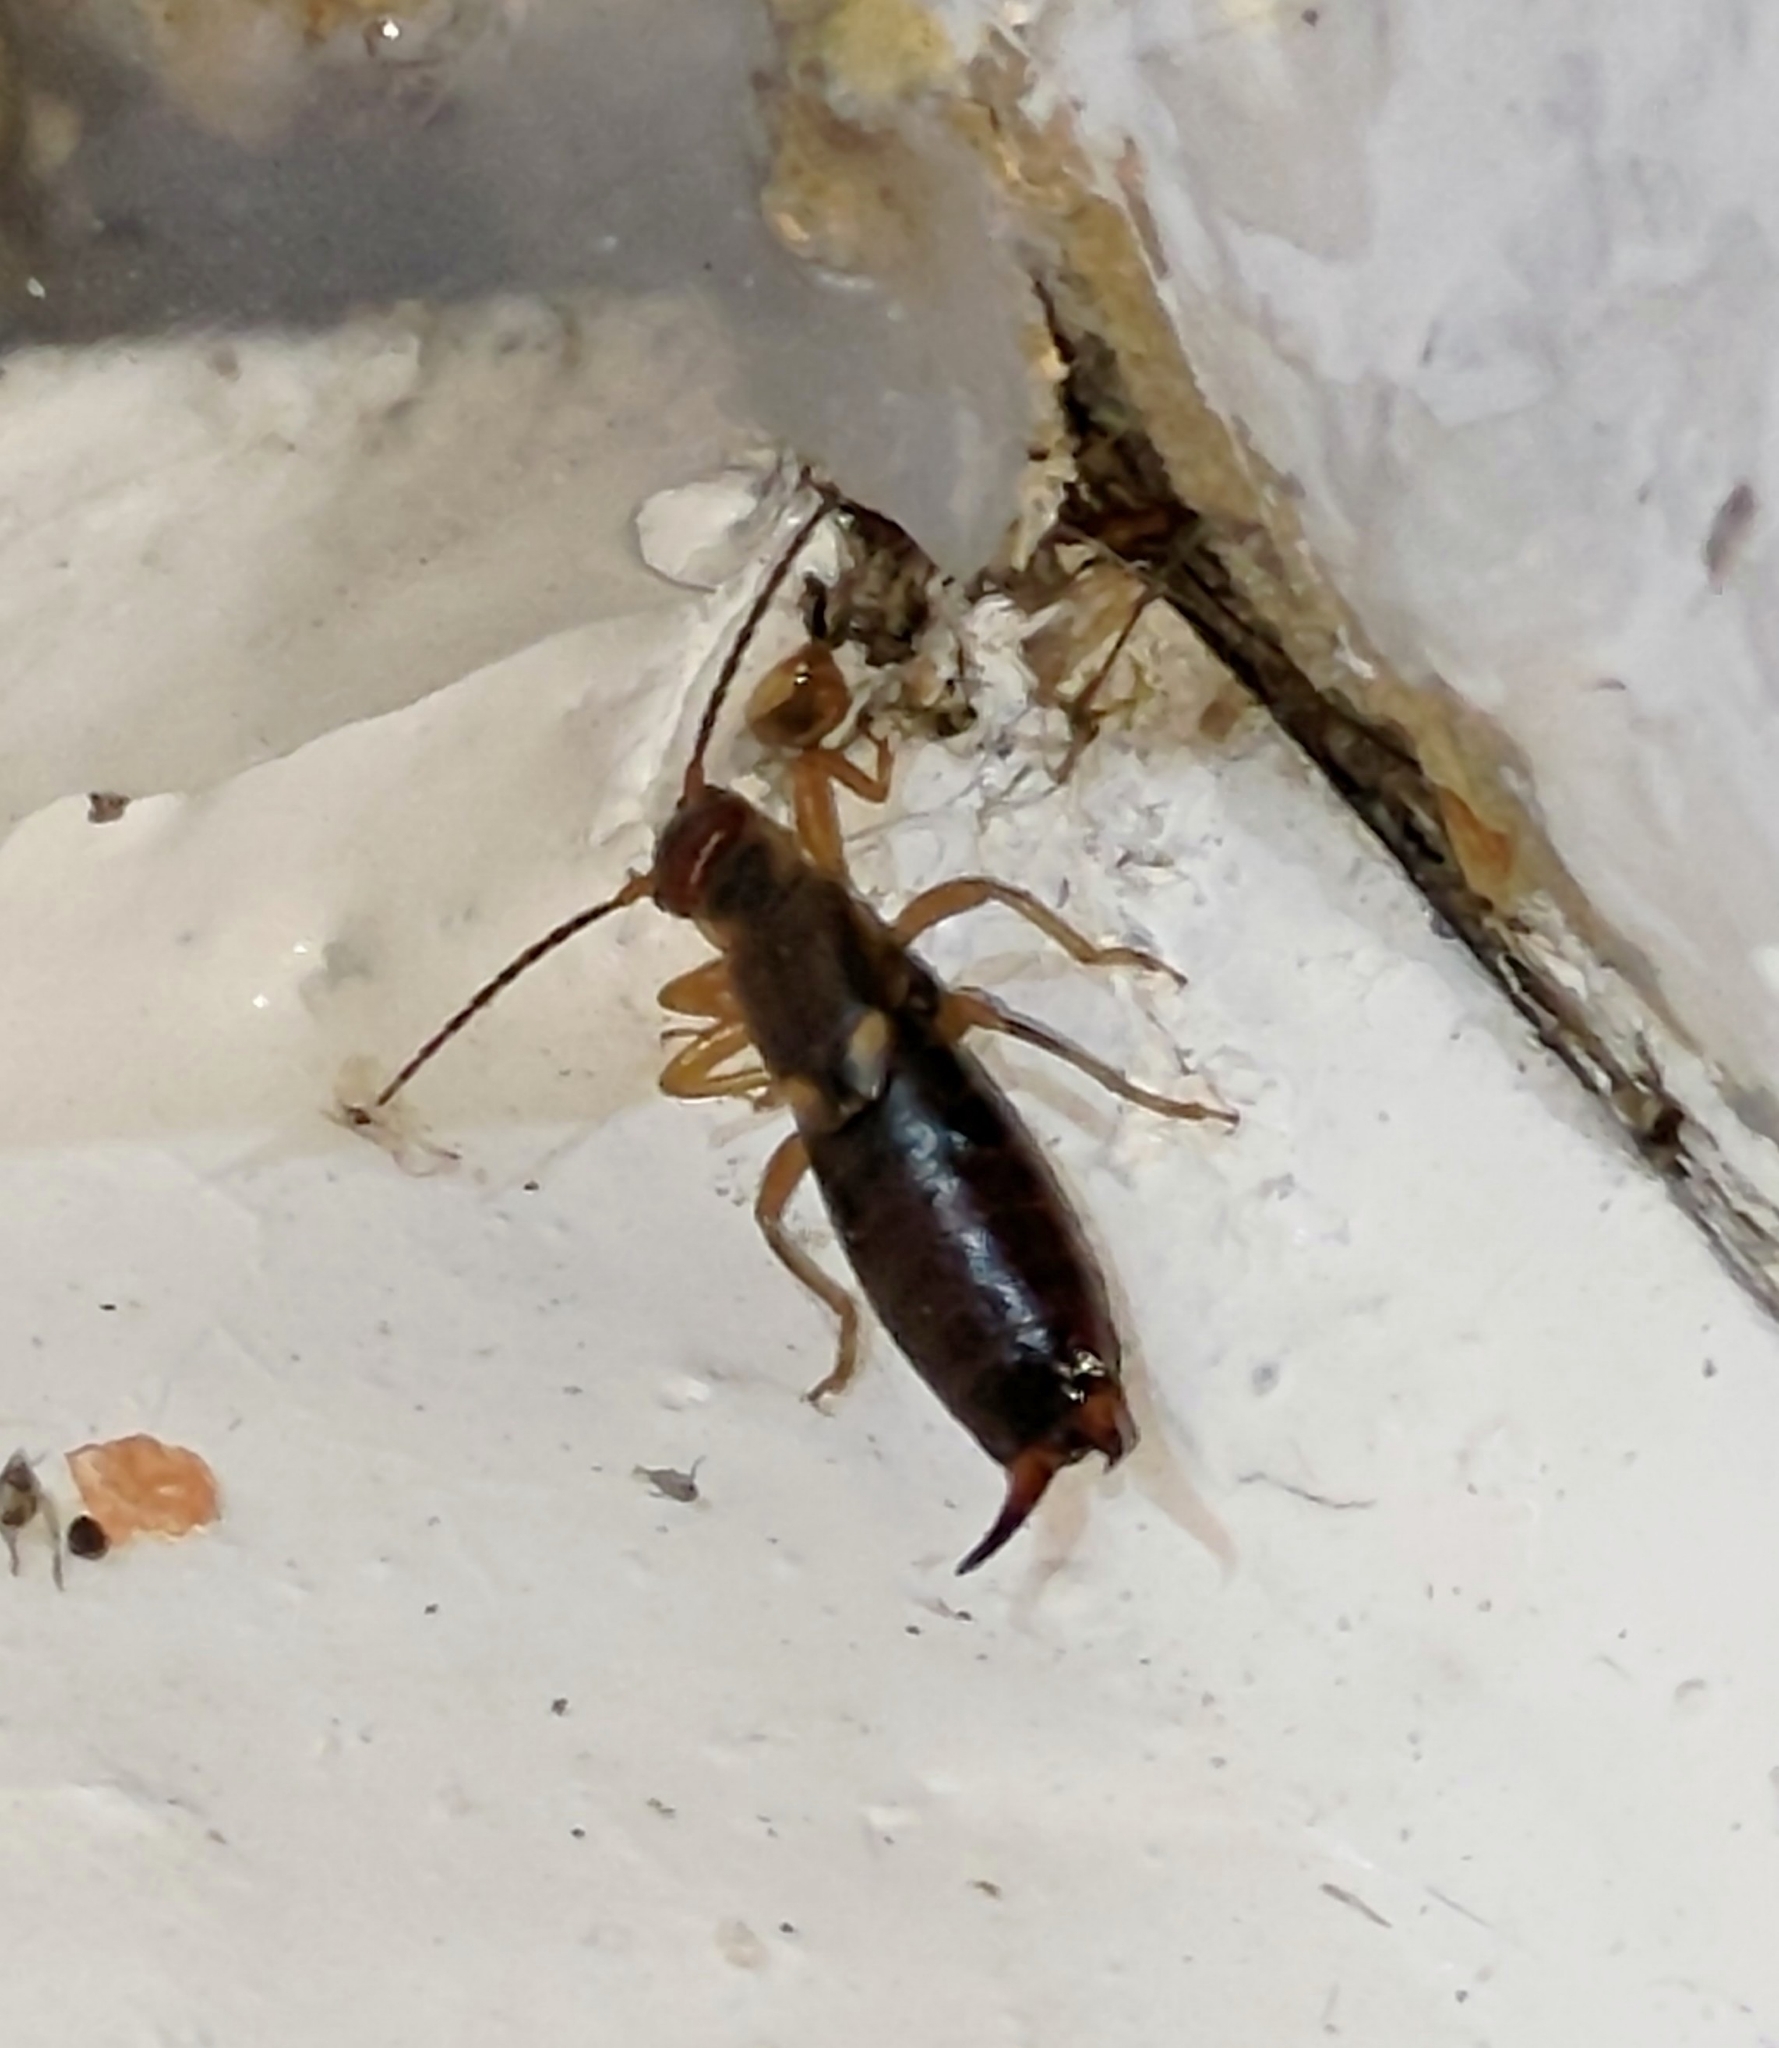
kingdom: Animalia
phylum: Arthropoda
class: Insecta
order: Dermaptera
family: Forficulidae
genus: Forficula
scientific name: Forficula
